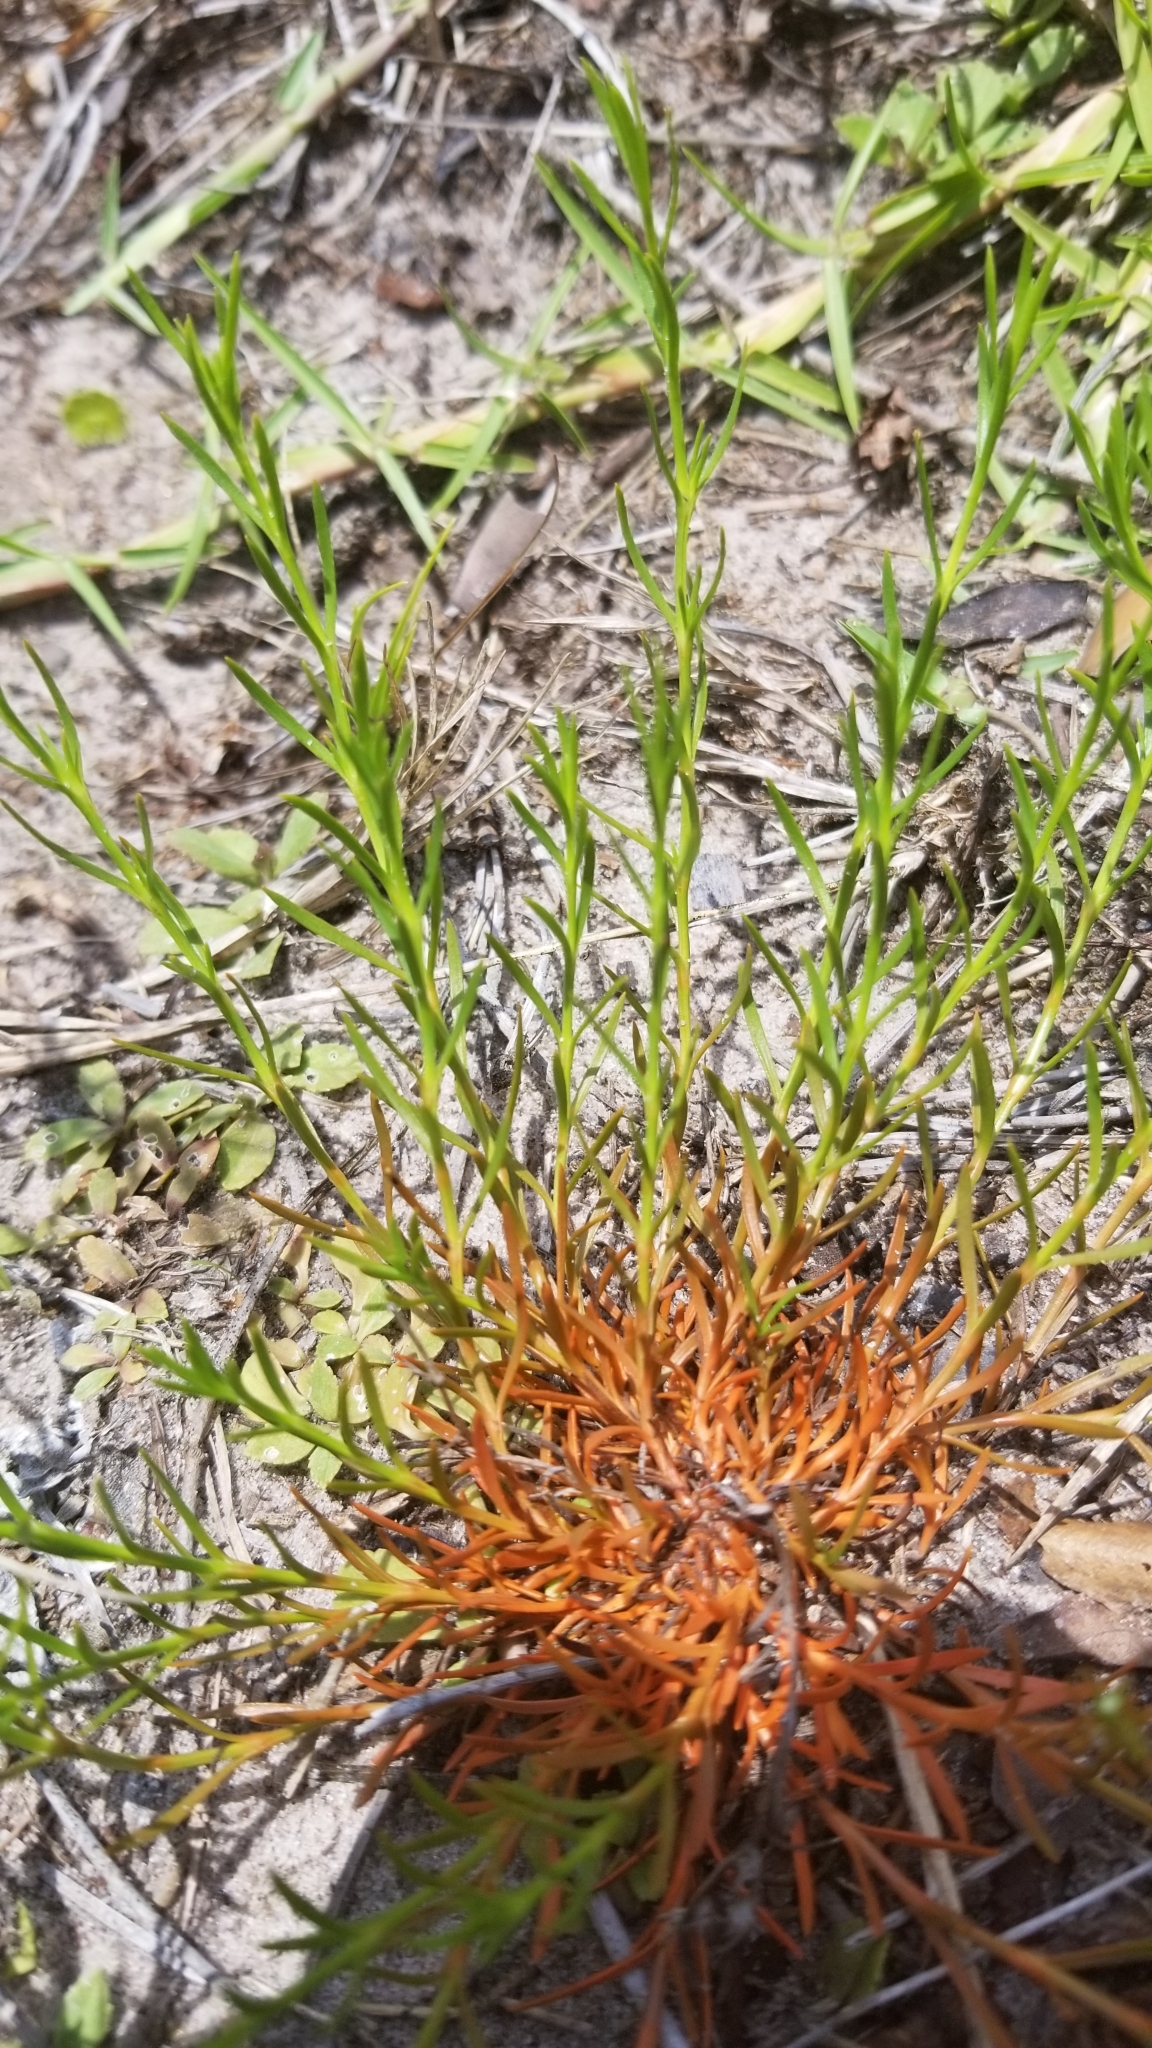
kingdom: Plantae
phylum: Tracheophyta
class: Magnoliopsida
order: Lamiales
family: Tetrachondraceae
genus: Polypremum
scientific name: Polypremum procumbens
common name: Juniper-leaf
